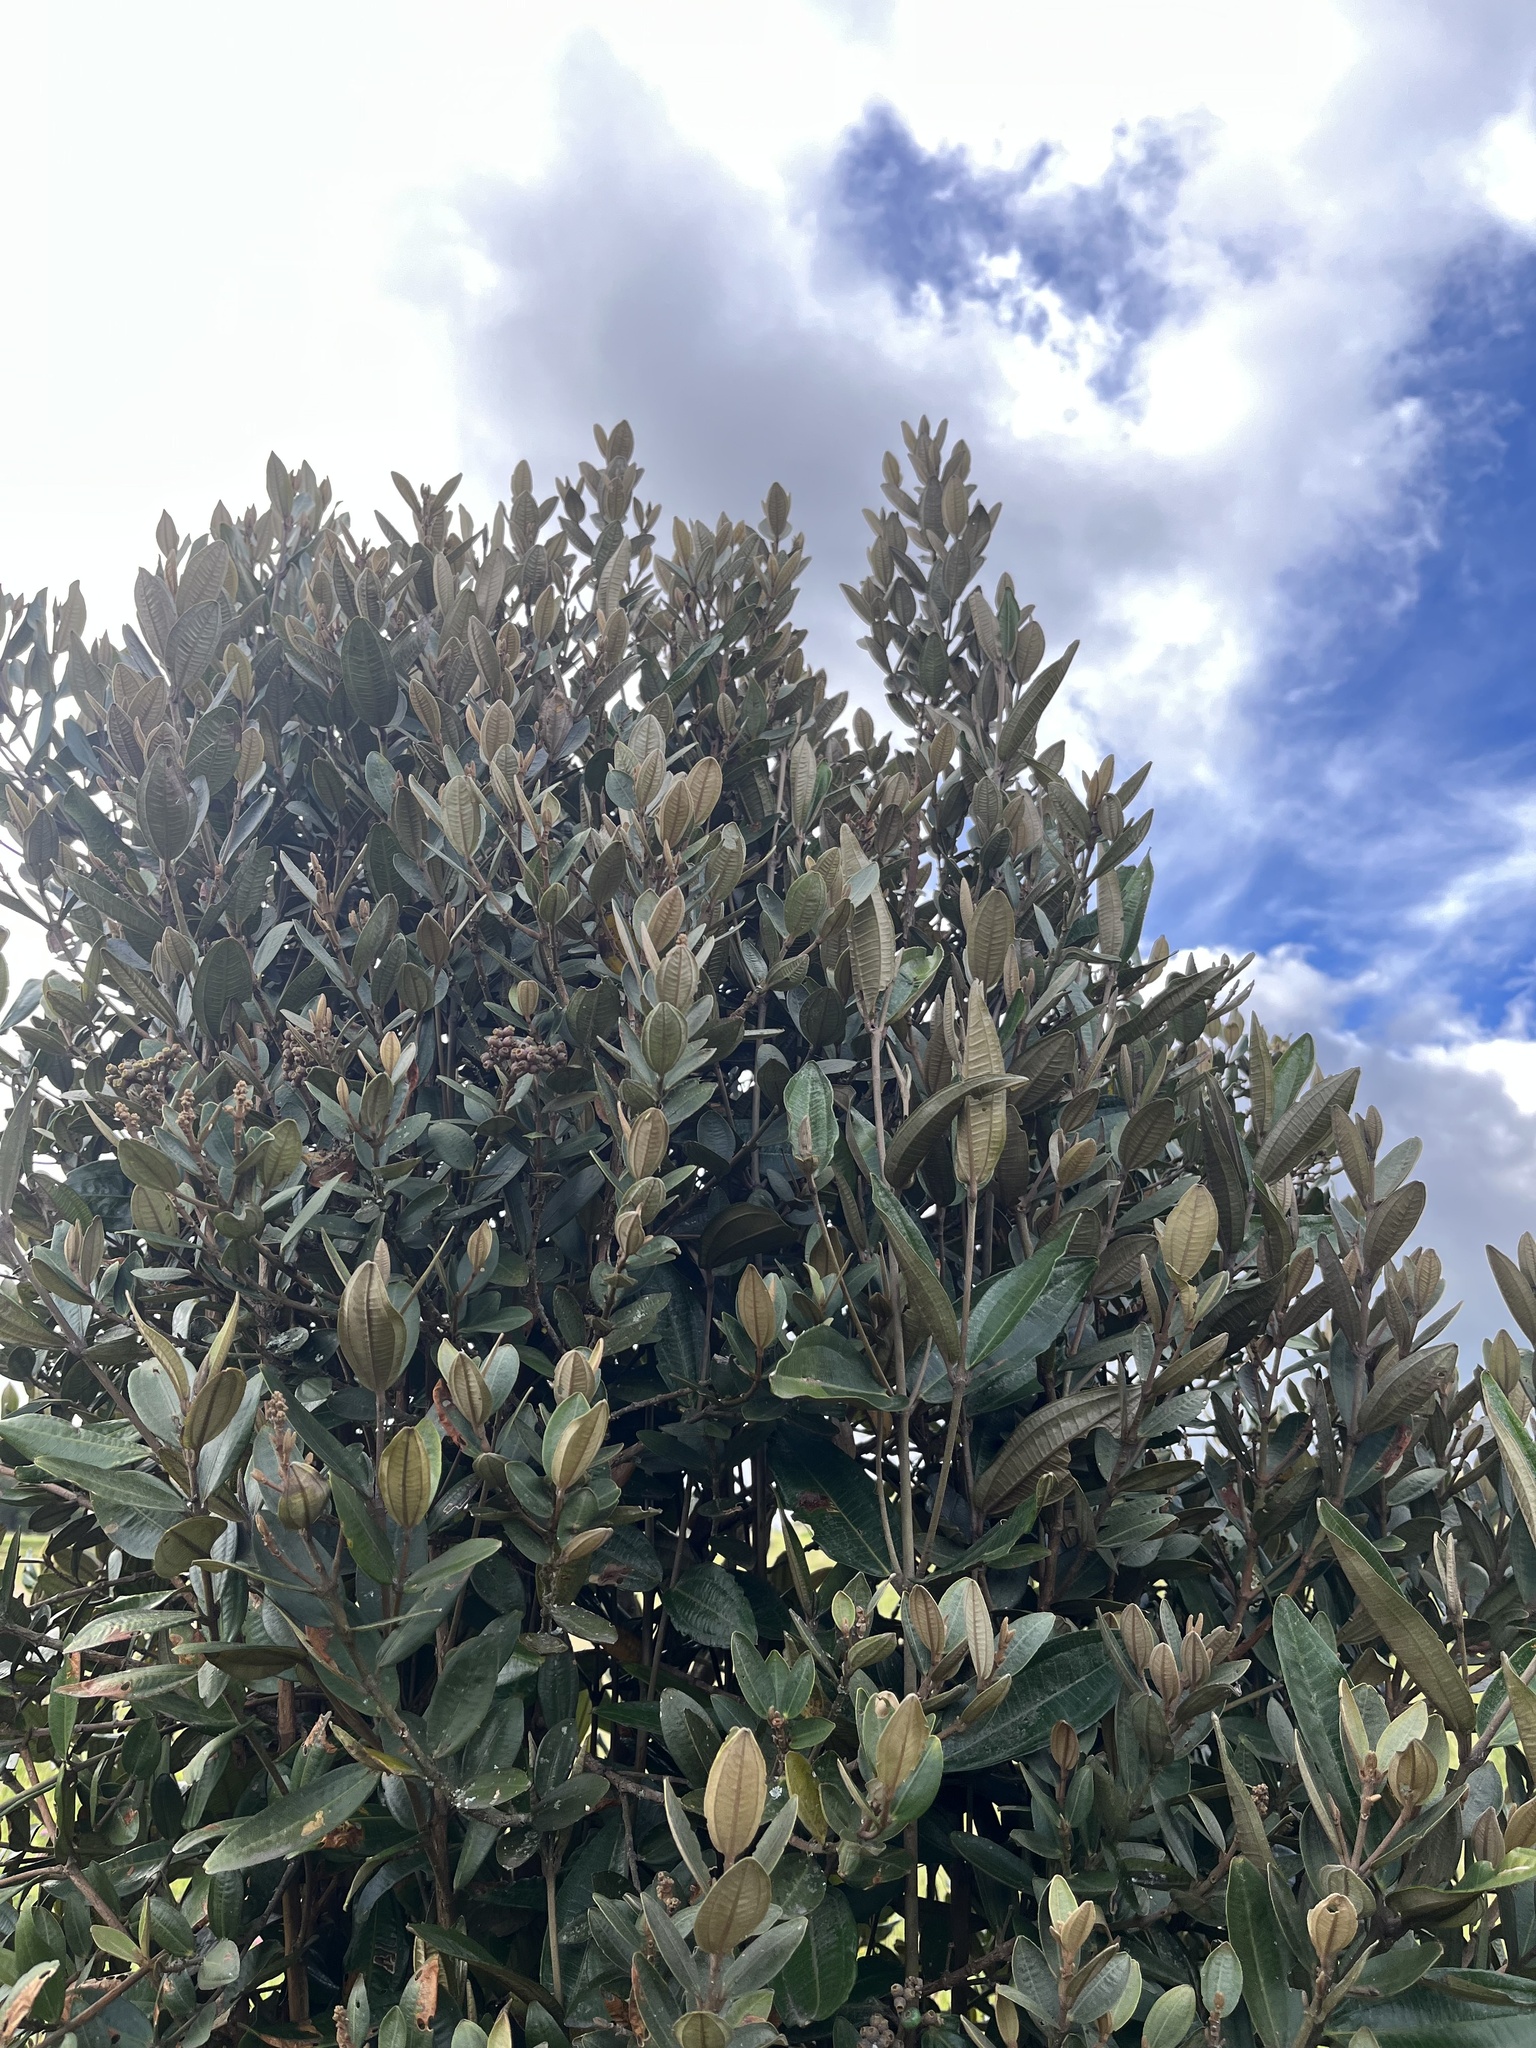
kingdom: Plantae
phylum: Tracheophyta
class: Magnoliopsida
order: Myrtales
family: Melastomataceae
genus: Miconia
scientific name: Miconia squamulosa
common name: Squamulose maya
